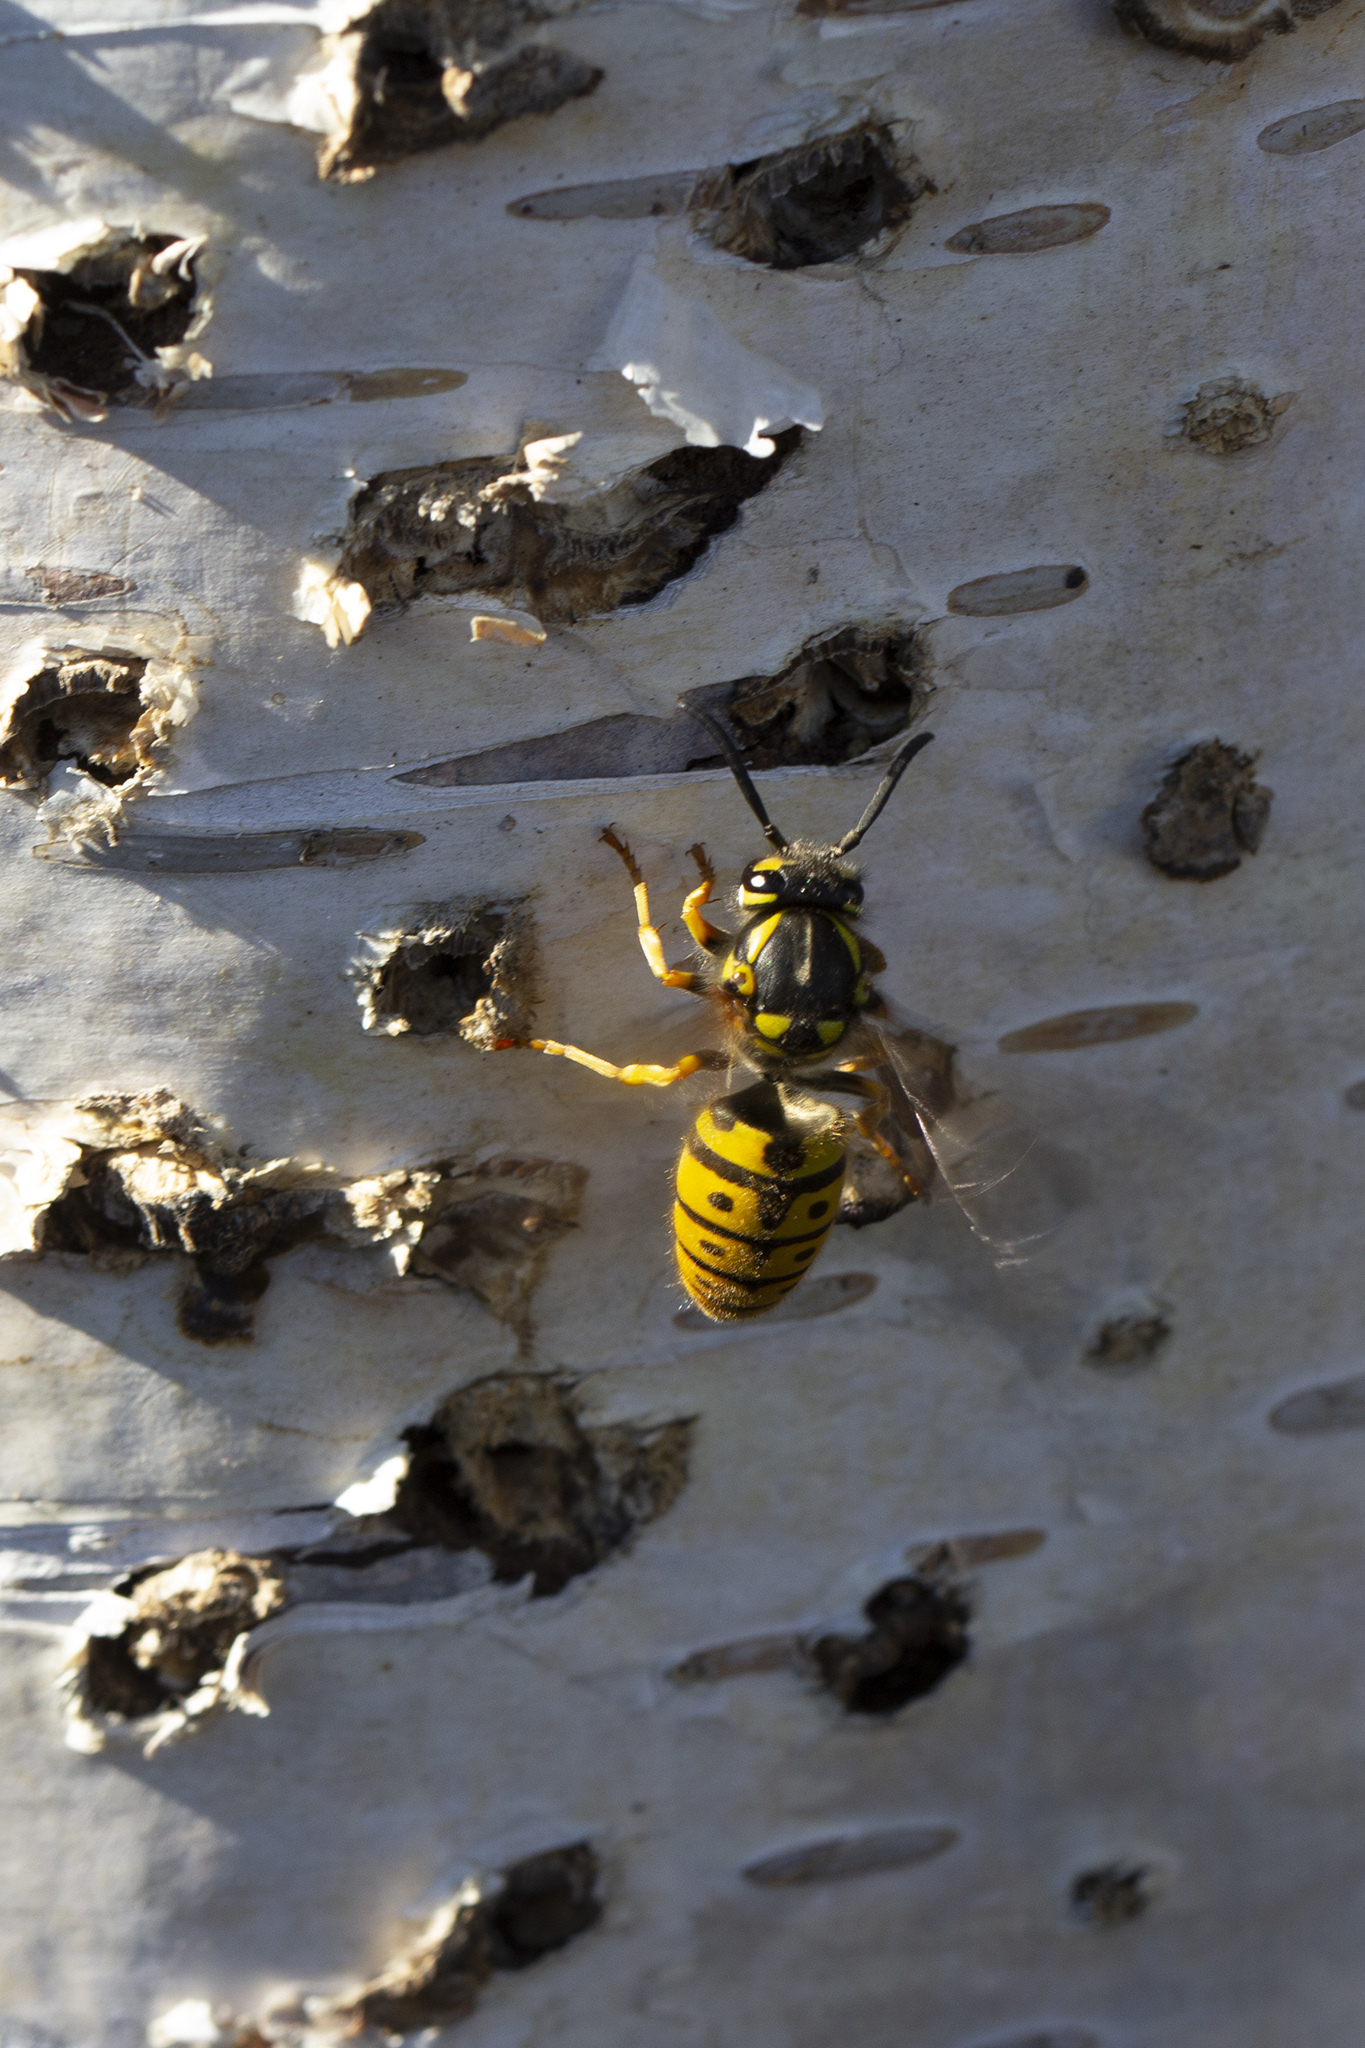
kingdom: Animalia
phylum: Arthropoda
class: Insecta
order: Hymenoptera
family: Vespidae
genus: Vespula
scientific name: Vespula germanica
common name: German wasp
